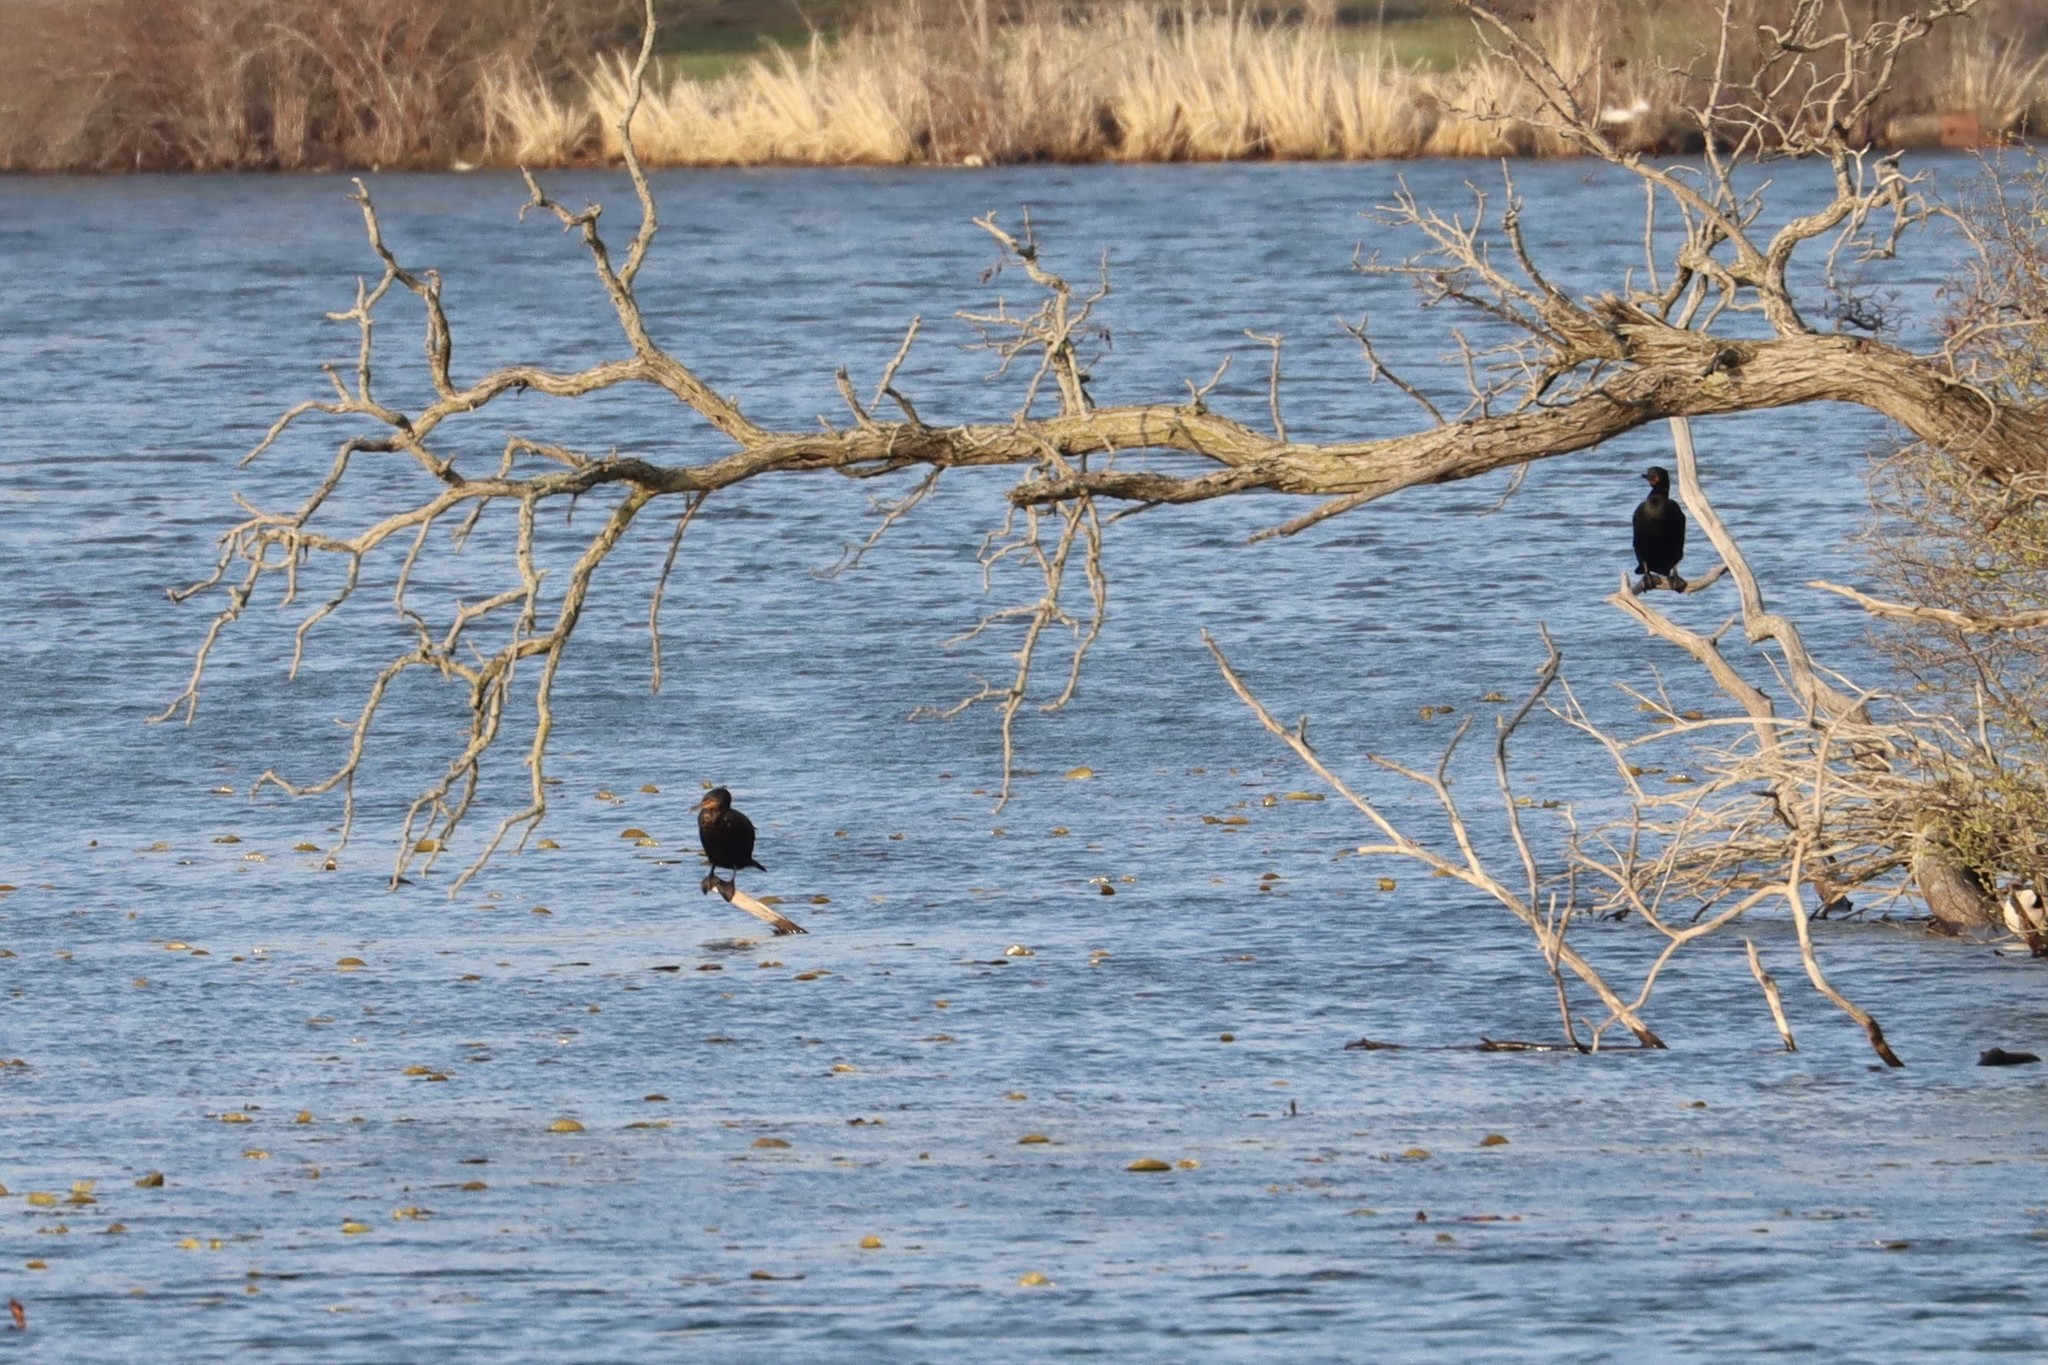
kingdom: Animalia
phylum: Chordata
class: Aves
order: Suliformes
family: Phalacrocoracidae
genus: Phalacrocorax
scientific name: Phalacrocorax auritus
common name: Double-crested cormorant
